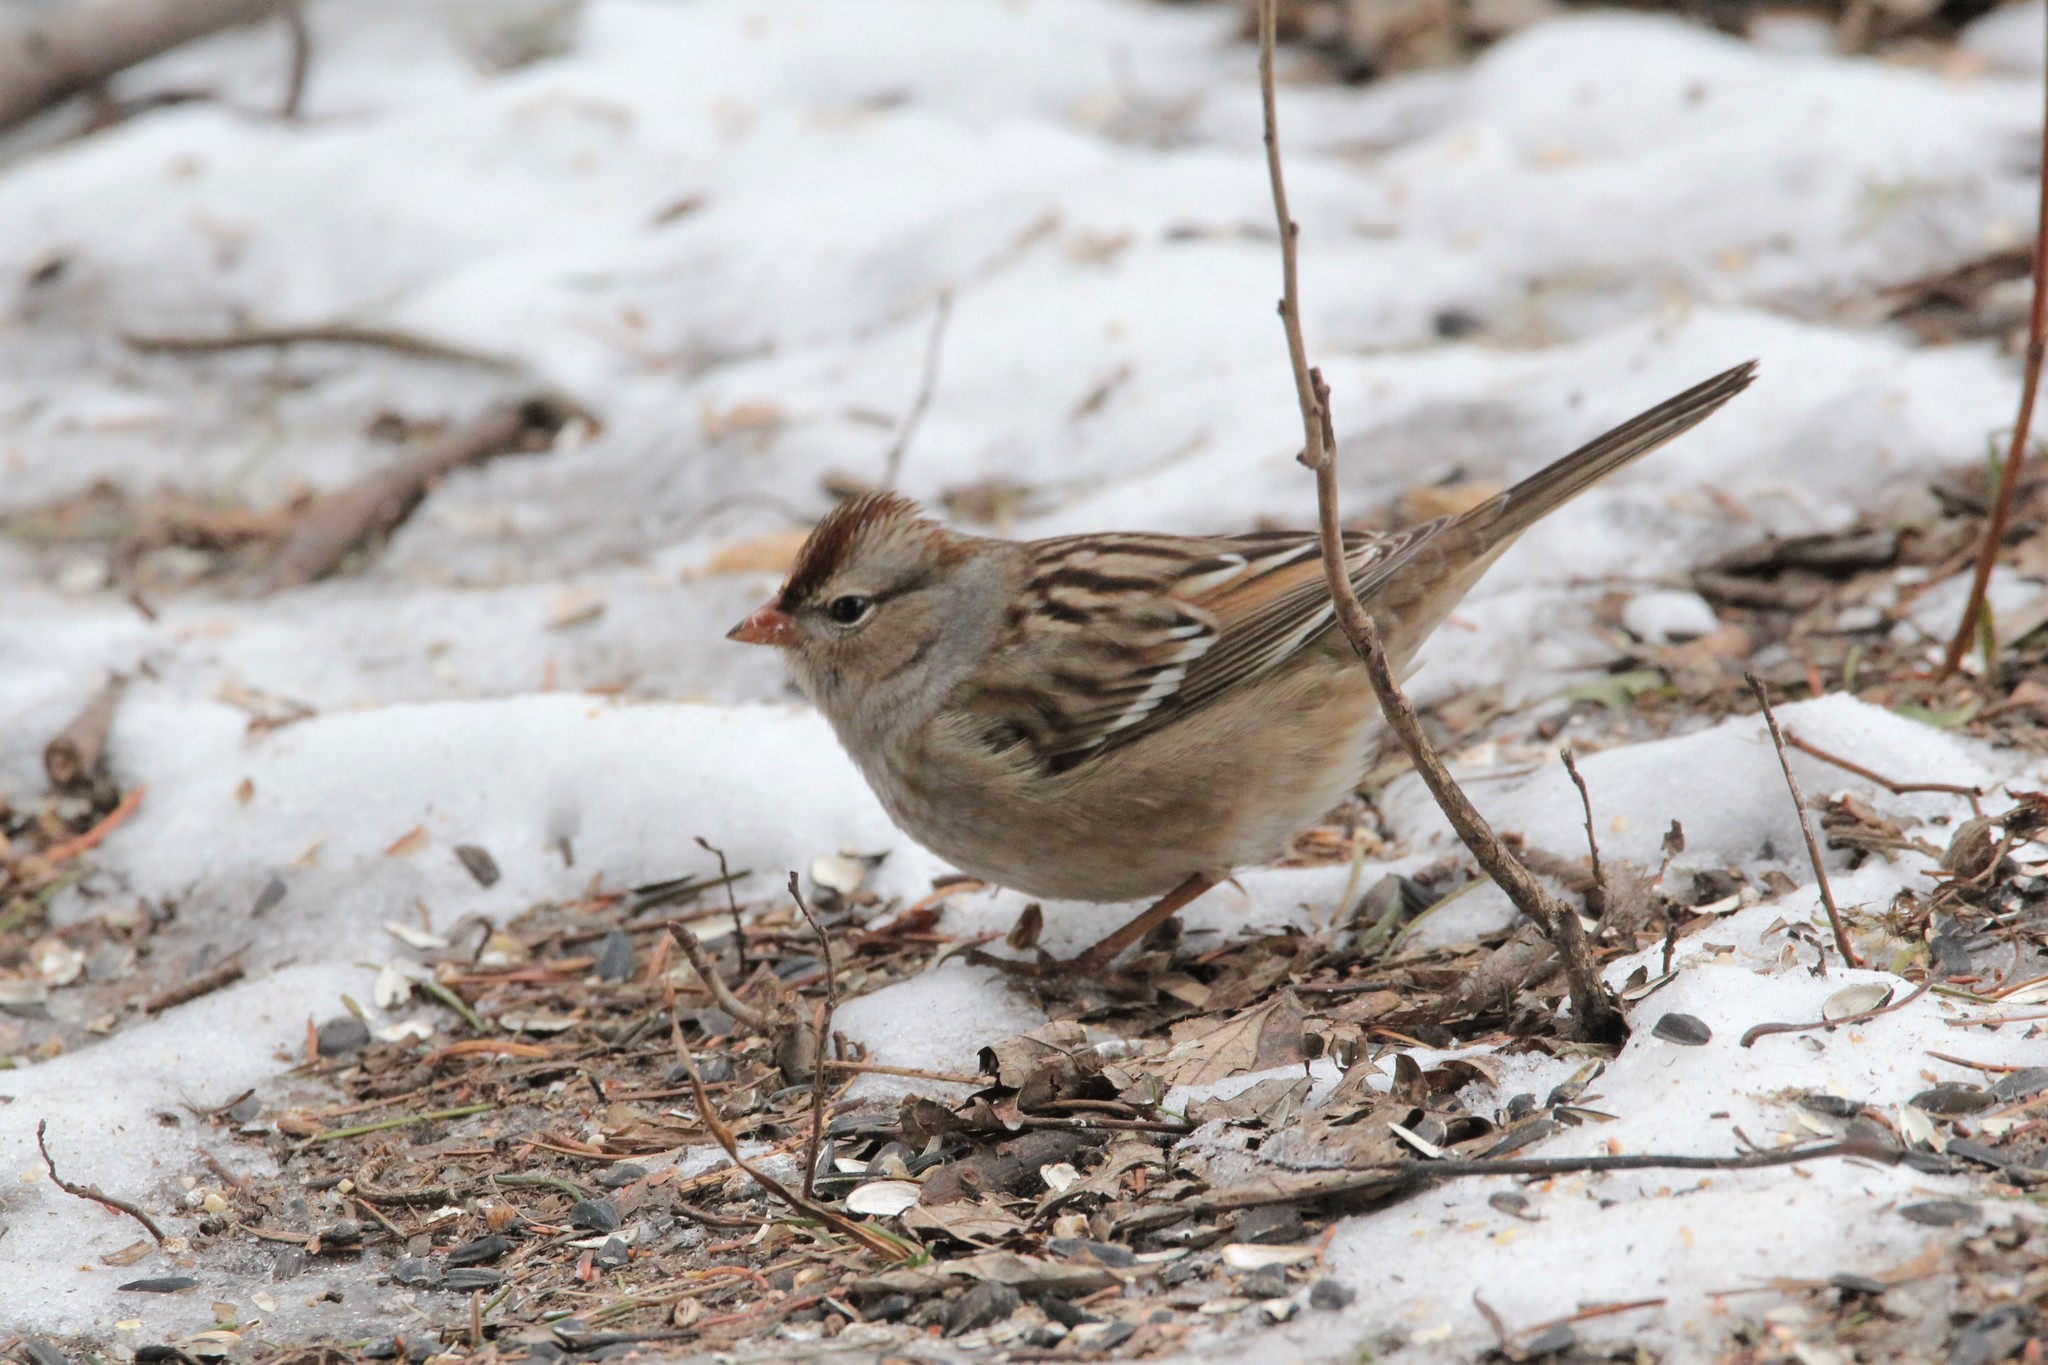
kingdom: Animalia
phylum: Chordata
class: Aves
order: Passeriformes
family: Passerellidae
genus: Zonotrichia
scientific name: Zonotrichia leucophrys
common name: White-crowned sparrow
